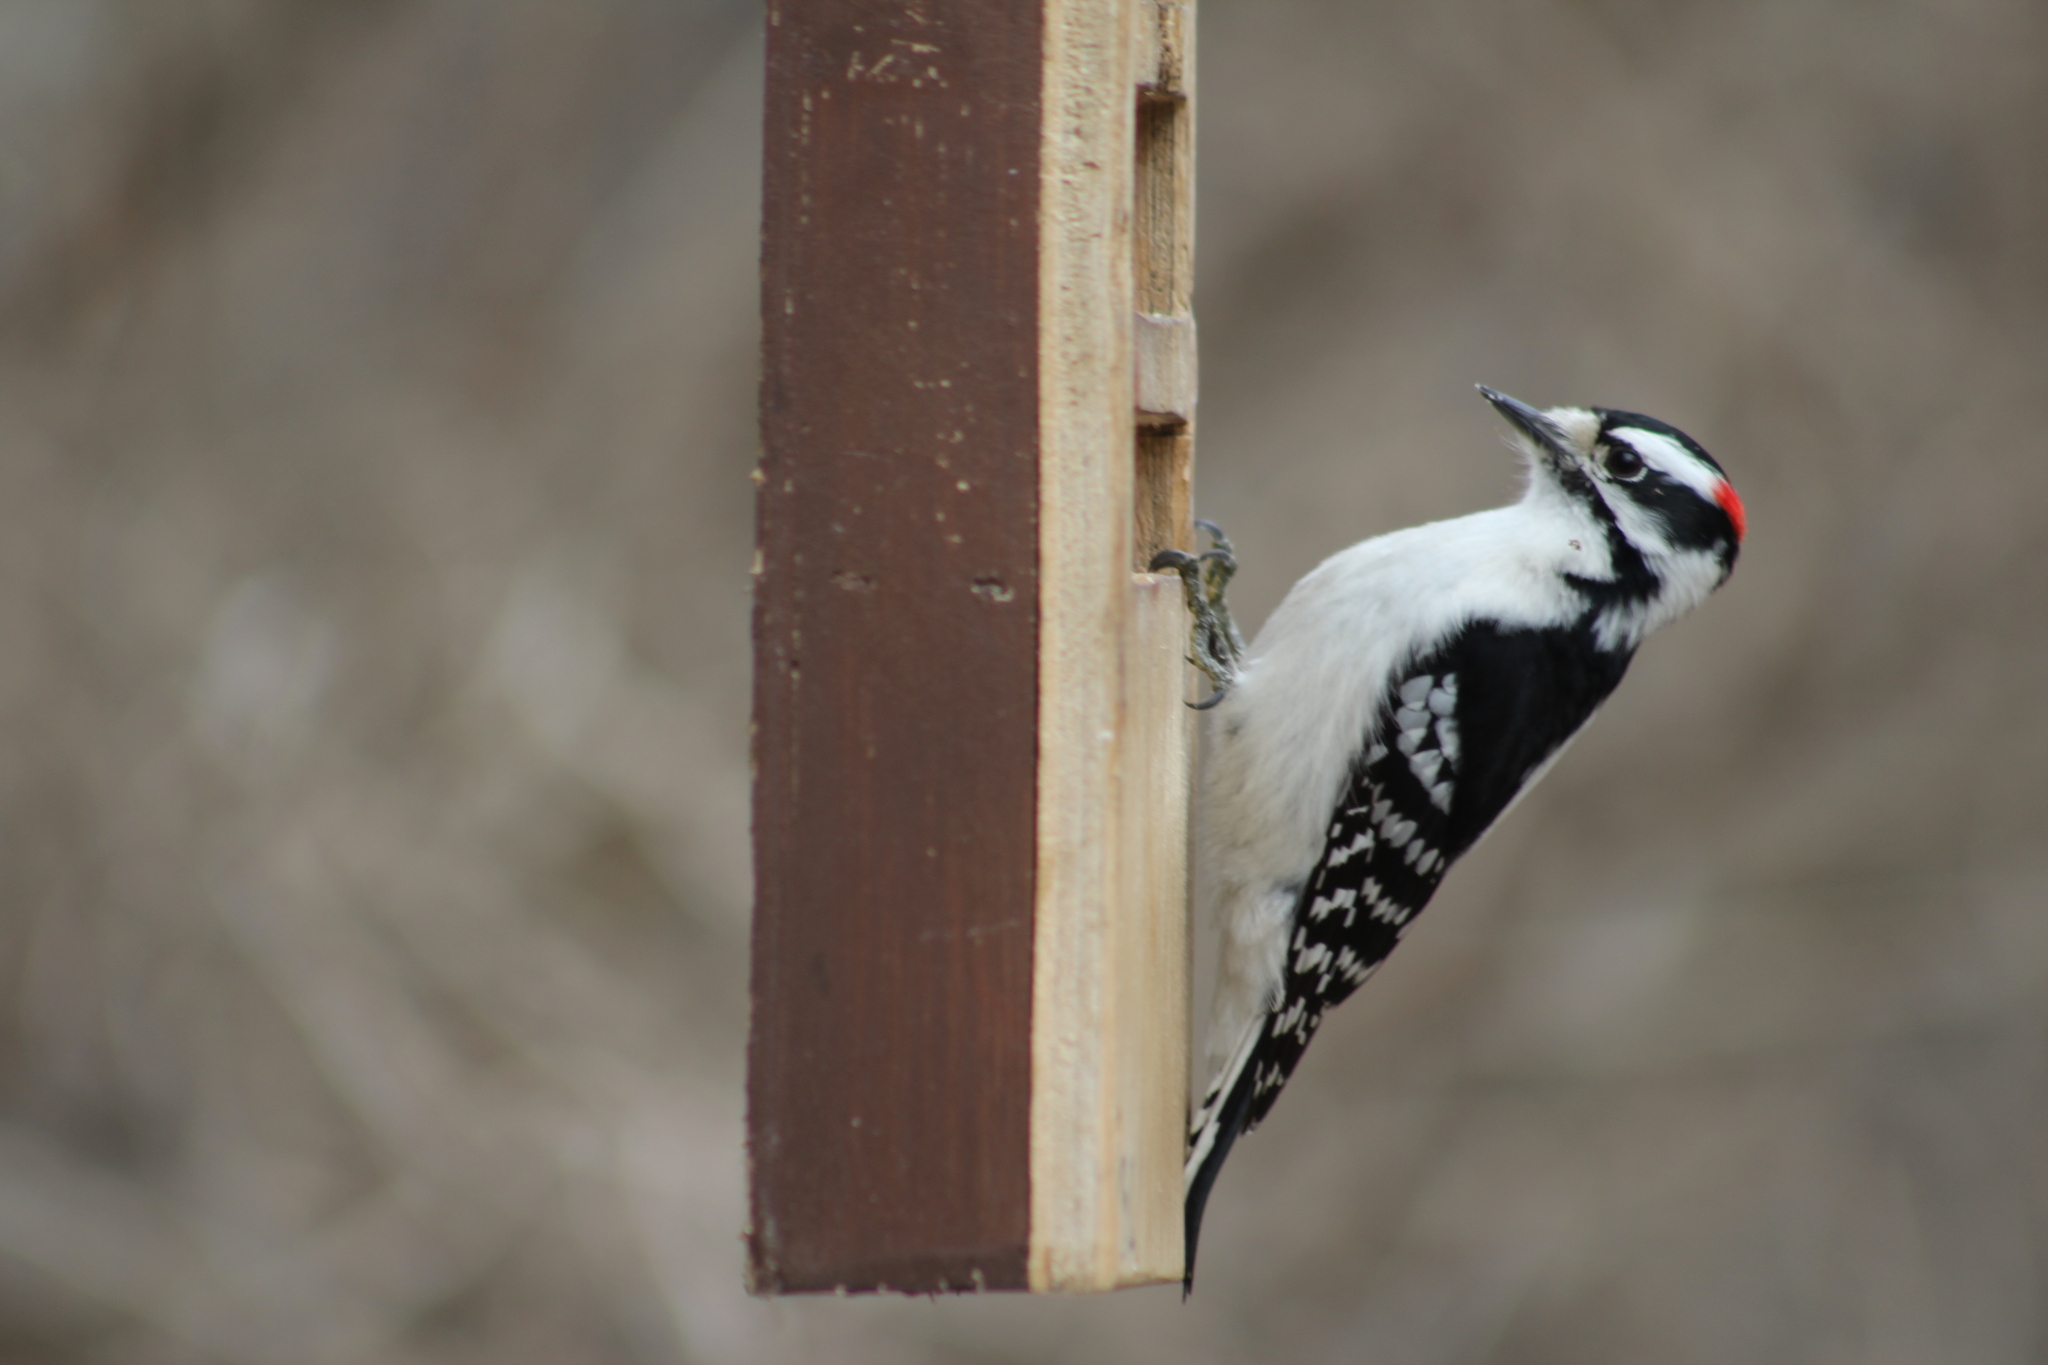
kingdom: Animalia
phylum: Chordata
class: Aves
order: Piciformes
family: Picidae
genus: Dryobates
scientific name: Dryobates pubescens
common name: Downy woodpecker
